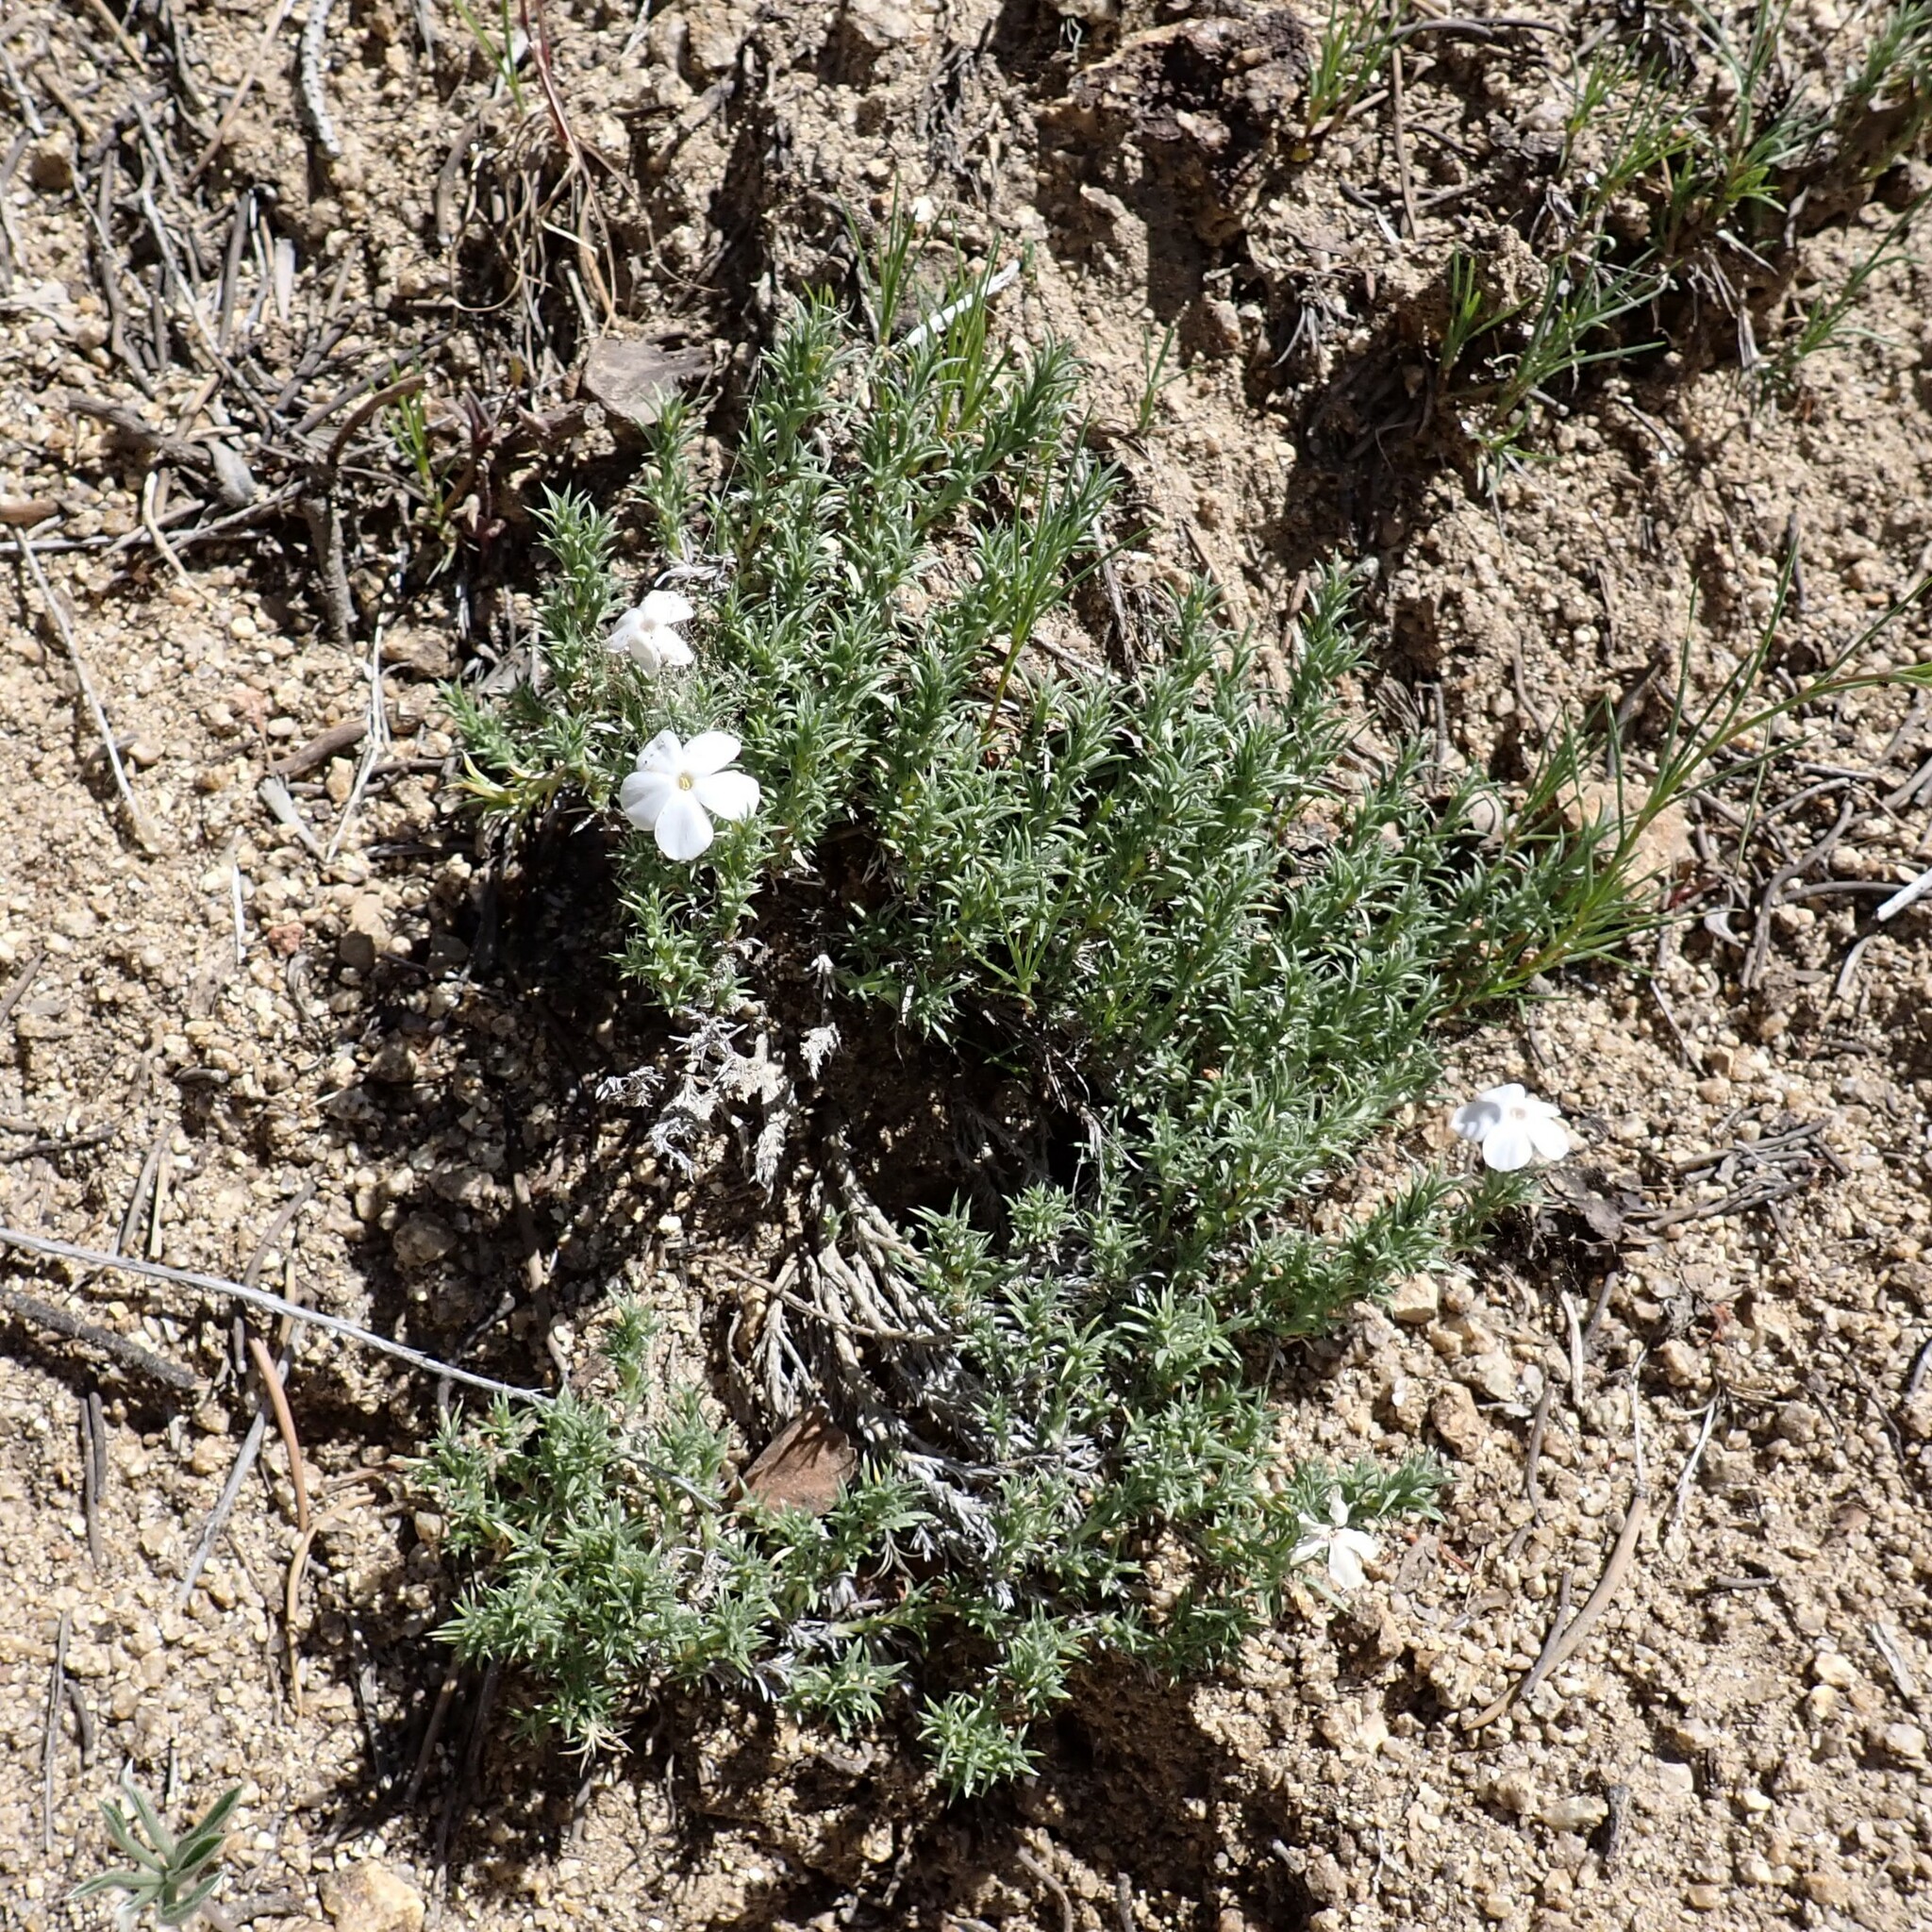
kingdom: Plantae
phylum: Tracheophyta
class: Magnoliopsida
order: Ericales
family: Polemoniaceae
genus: Phlox
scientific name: Phlox hoodii
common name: Moss phlox
